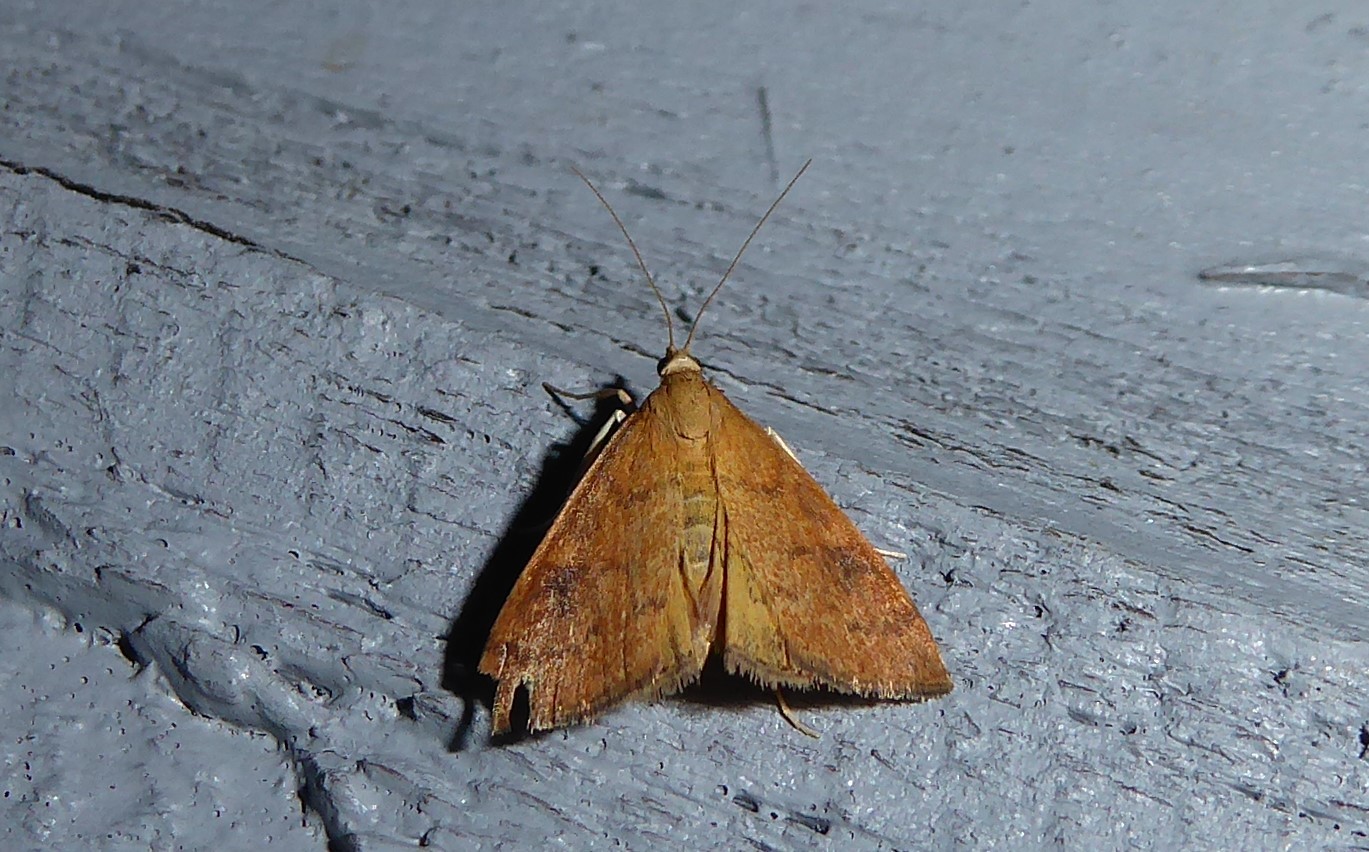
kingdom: Animalia
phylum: Arthropoda
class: Insecta
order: Lepidoptera
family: Crambidae
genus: Udea
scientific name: Udea Mnesictena flavidalis
